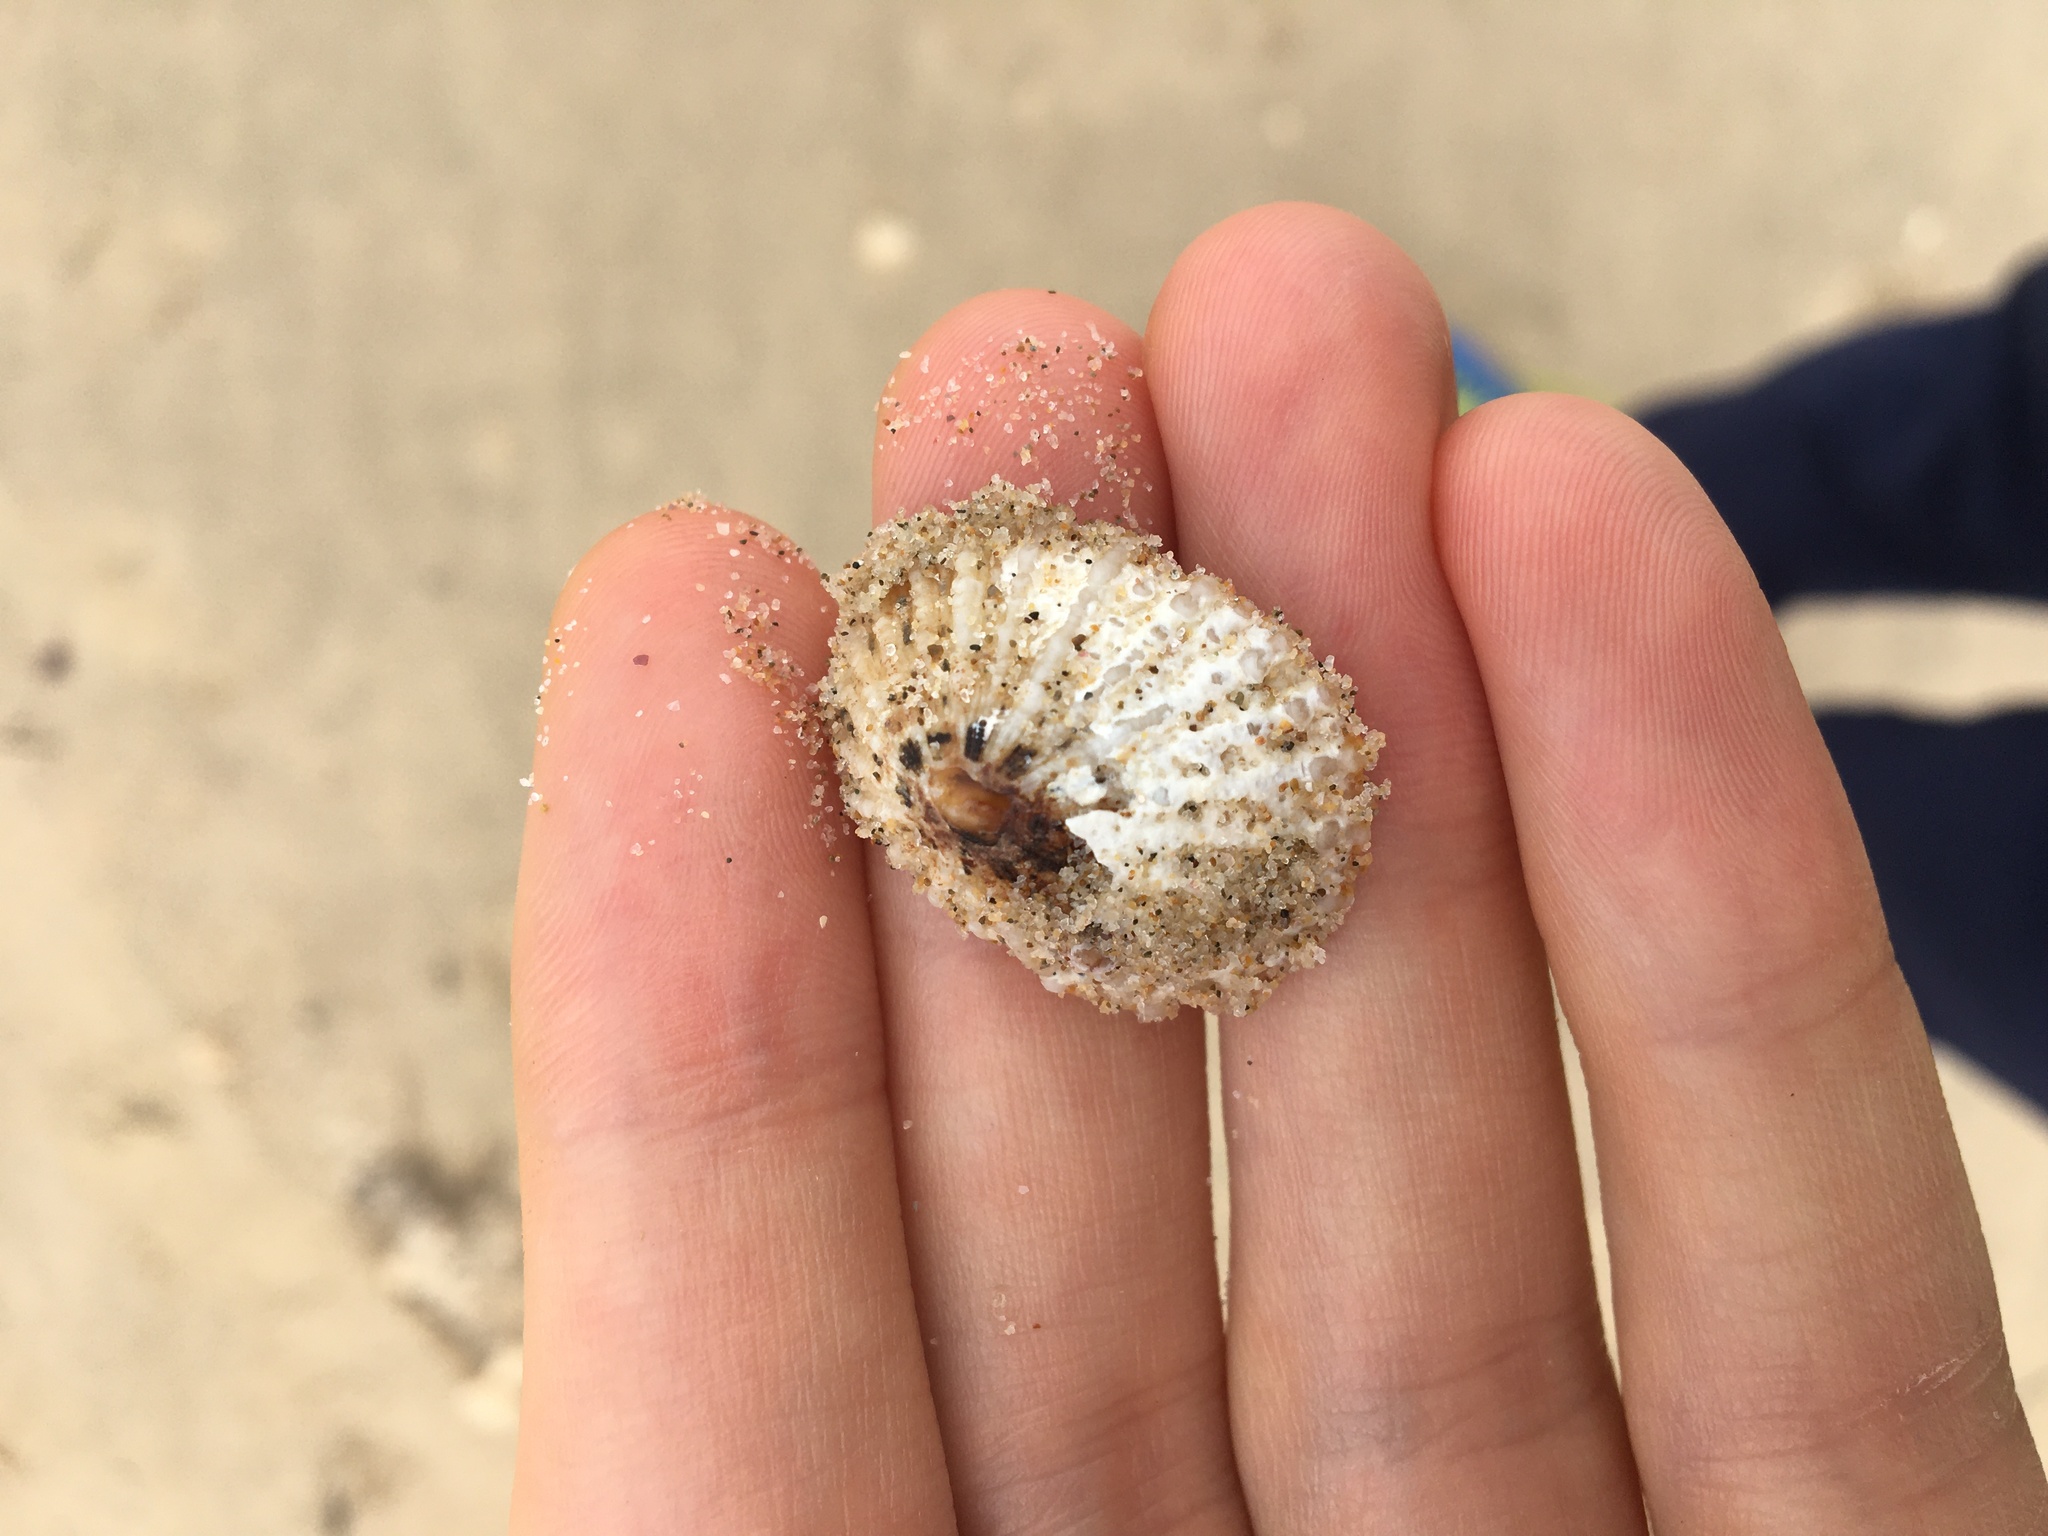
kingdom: Animalia
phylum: Mollusca
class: Gastropoda
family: Patellidae
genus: Scutellastra
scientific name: Scutellastra peronii
